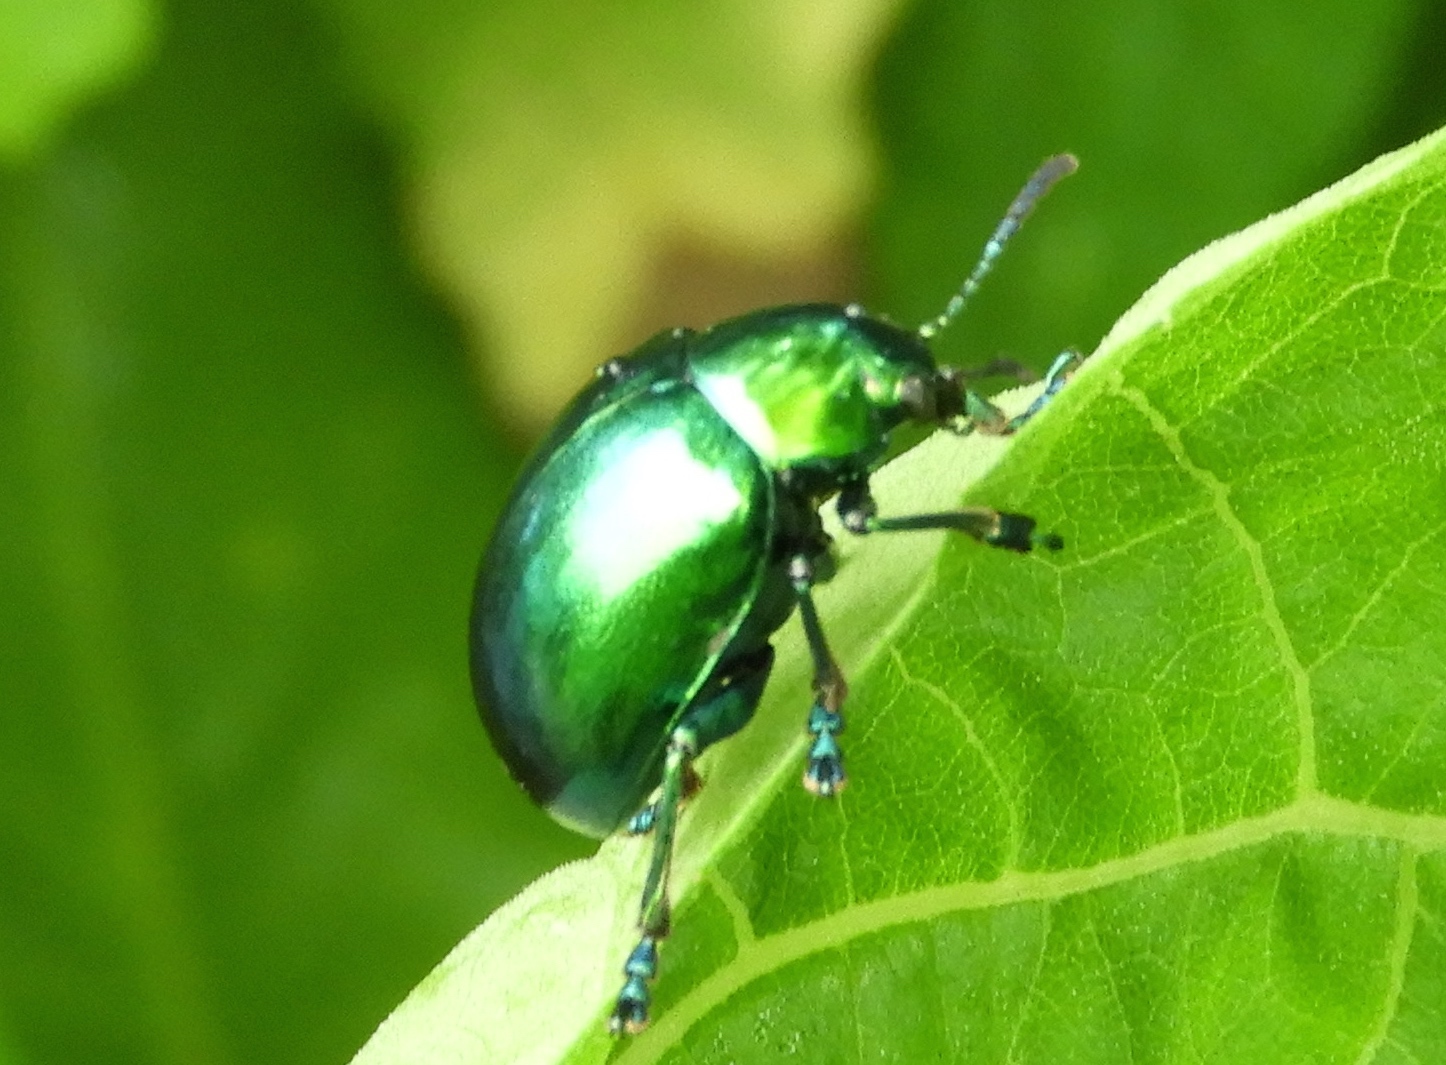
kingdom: Animalia
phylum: Arthropoda
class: Insecta
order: Coleoptera
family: Chrysomelidae
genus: Eumolpus
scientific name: Eumolpus robustus
